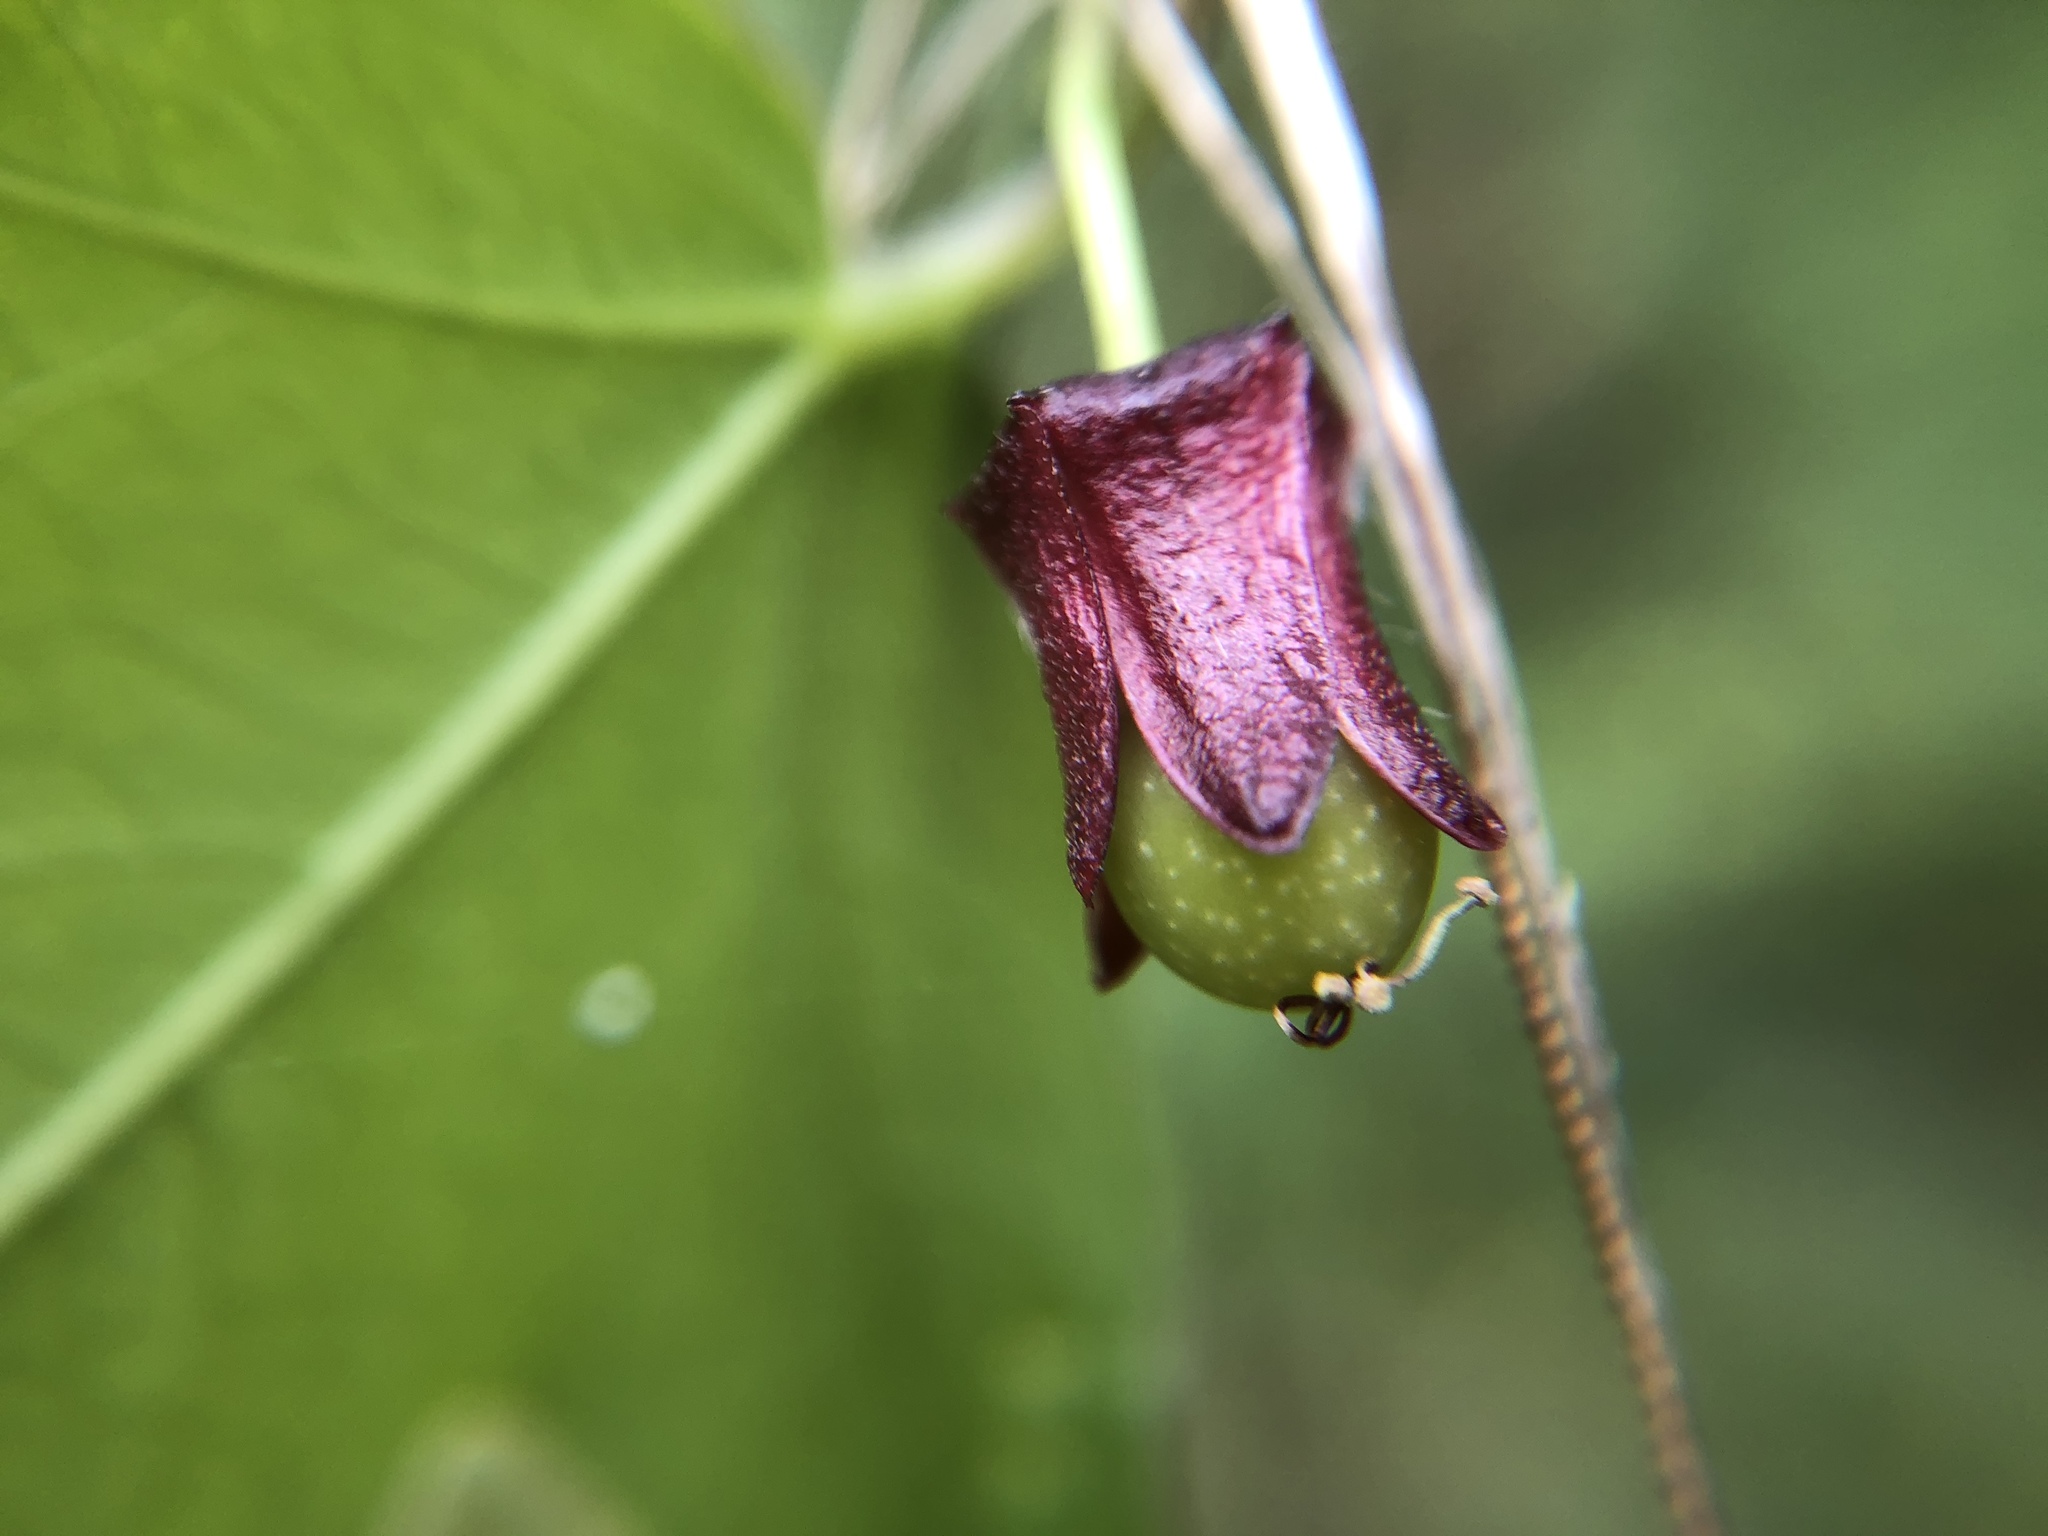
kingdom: Plantae
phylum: Tracheophyta
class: Magnoliopsida
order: Malpighiales
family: Passifloraceae
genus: Passiflora
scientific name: Passiflora suberosa
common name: Wild passionfruit
